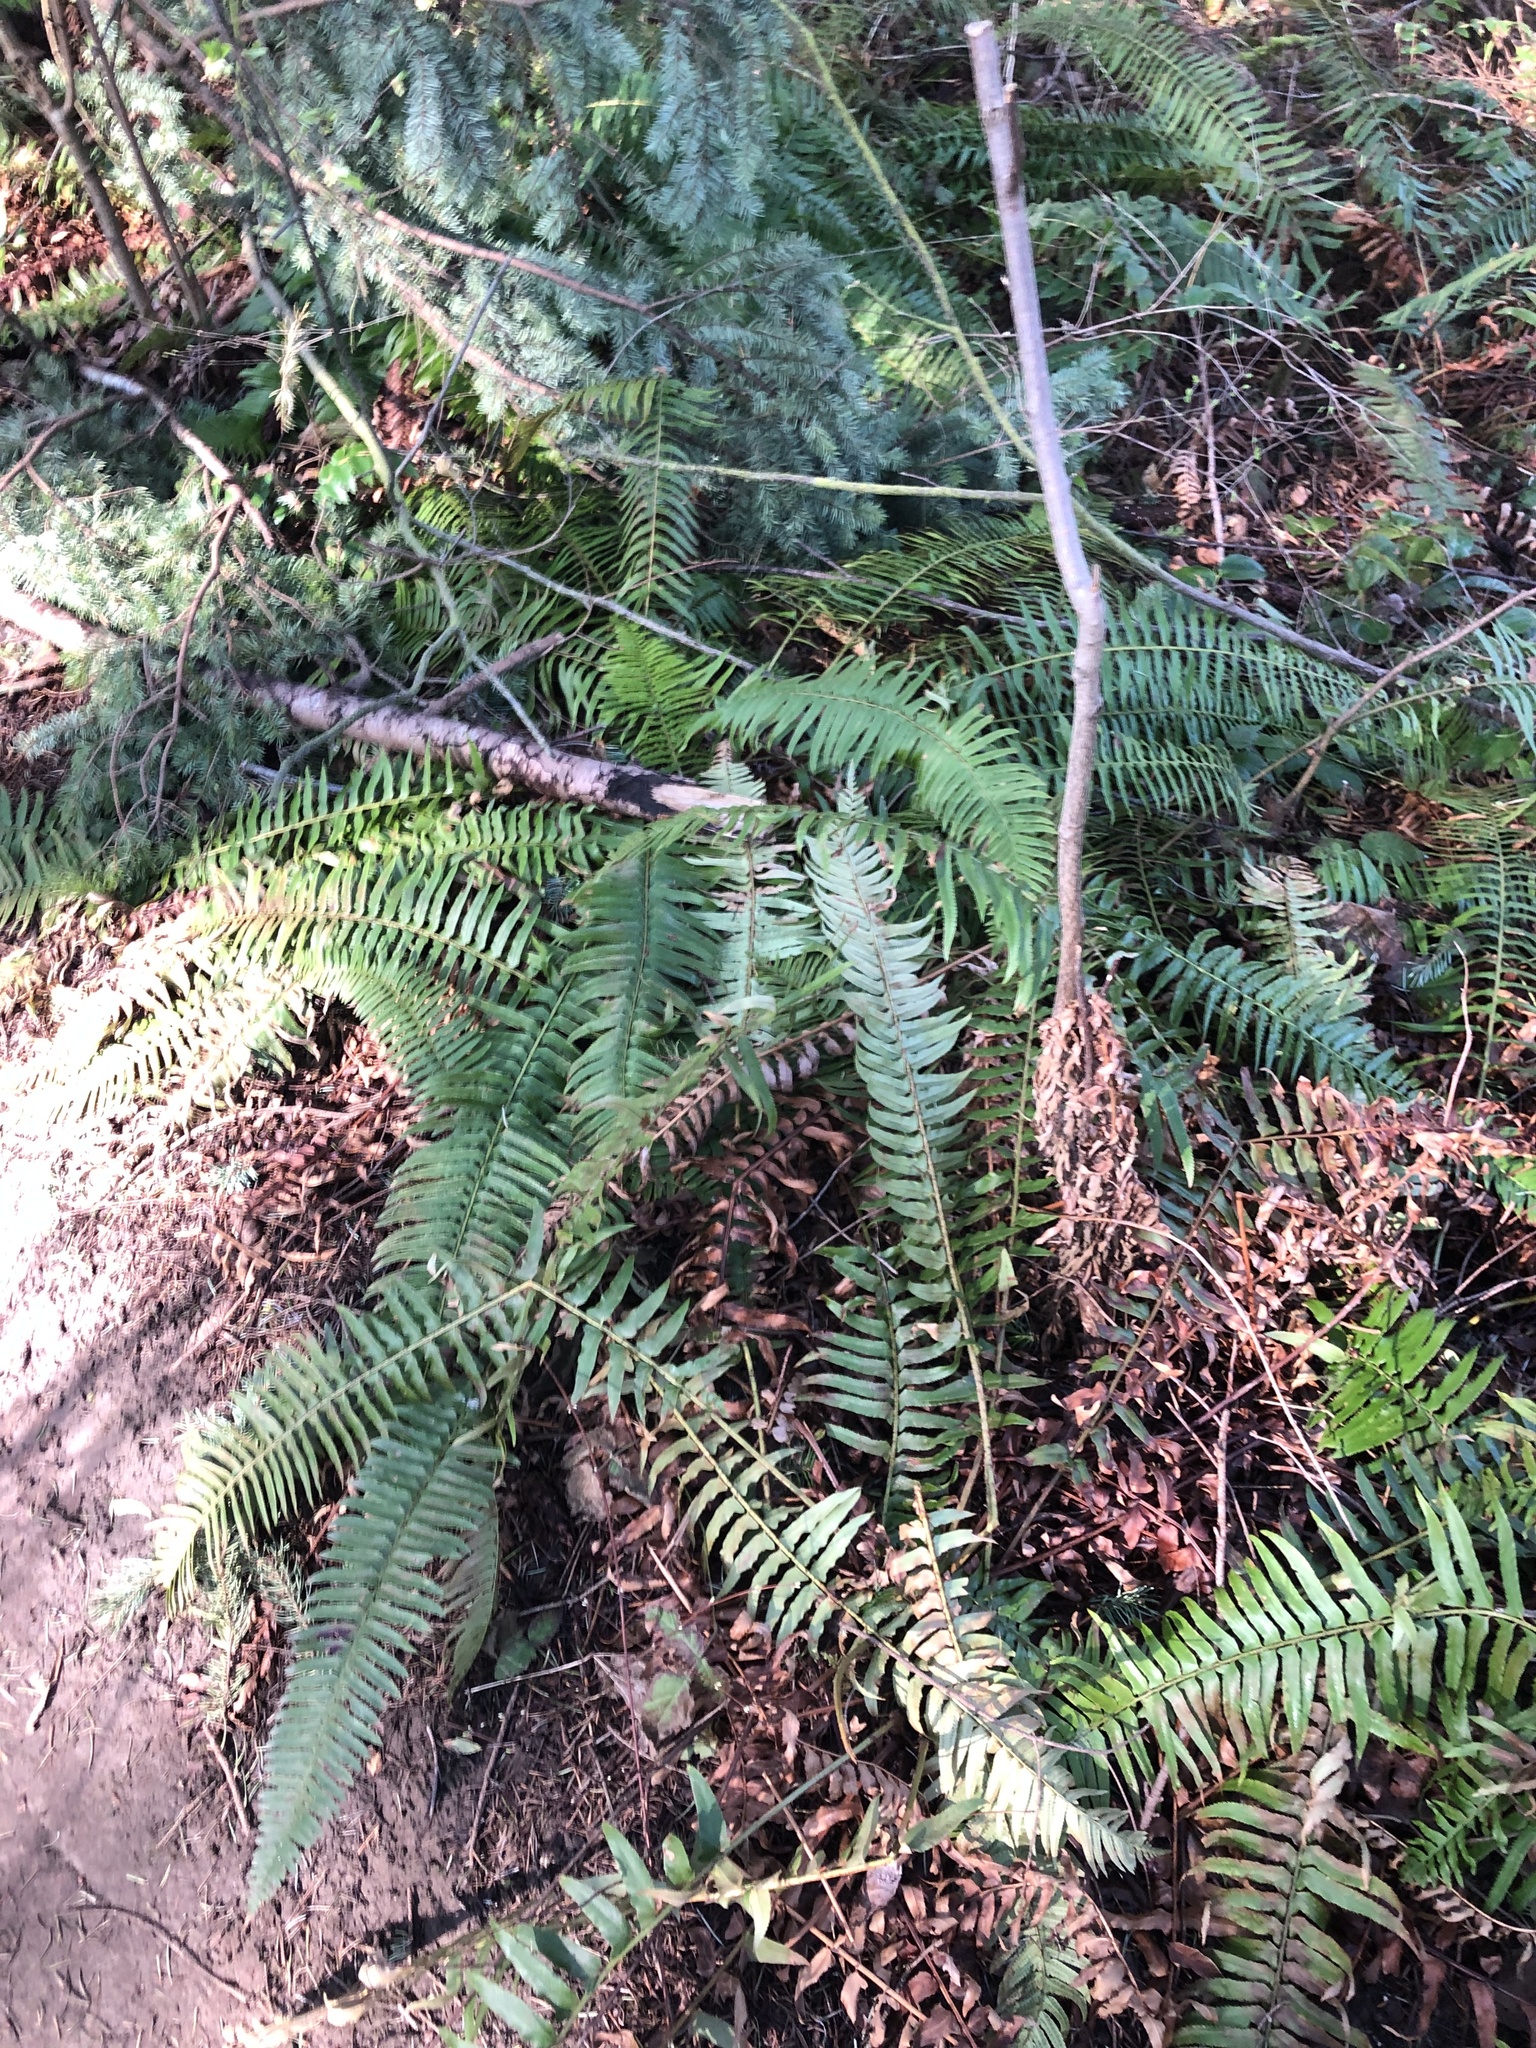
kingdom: Plantae
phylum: Tracheophyta
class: Polypodiopsida
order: Polypodiales
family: Dryopteridaceae
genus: Polystichum
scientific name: Polystichum munitum
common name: Western sword-fern
